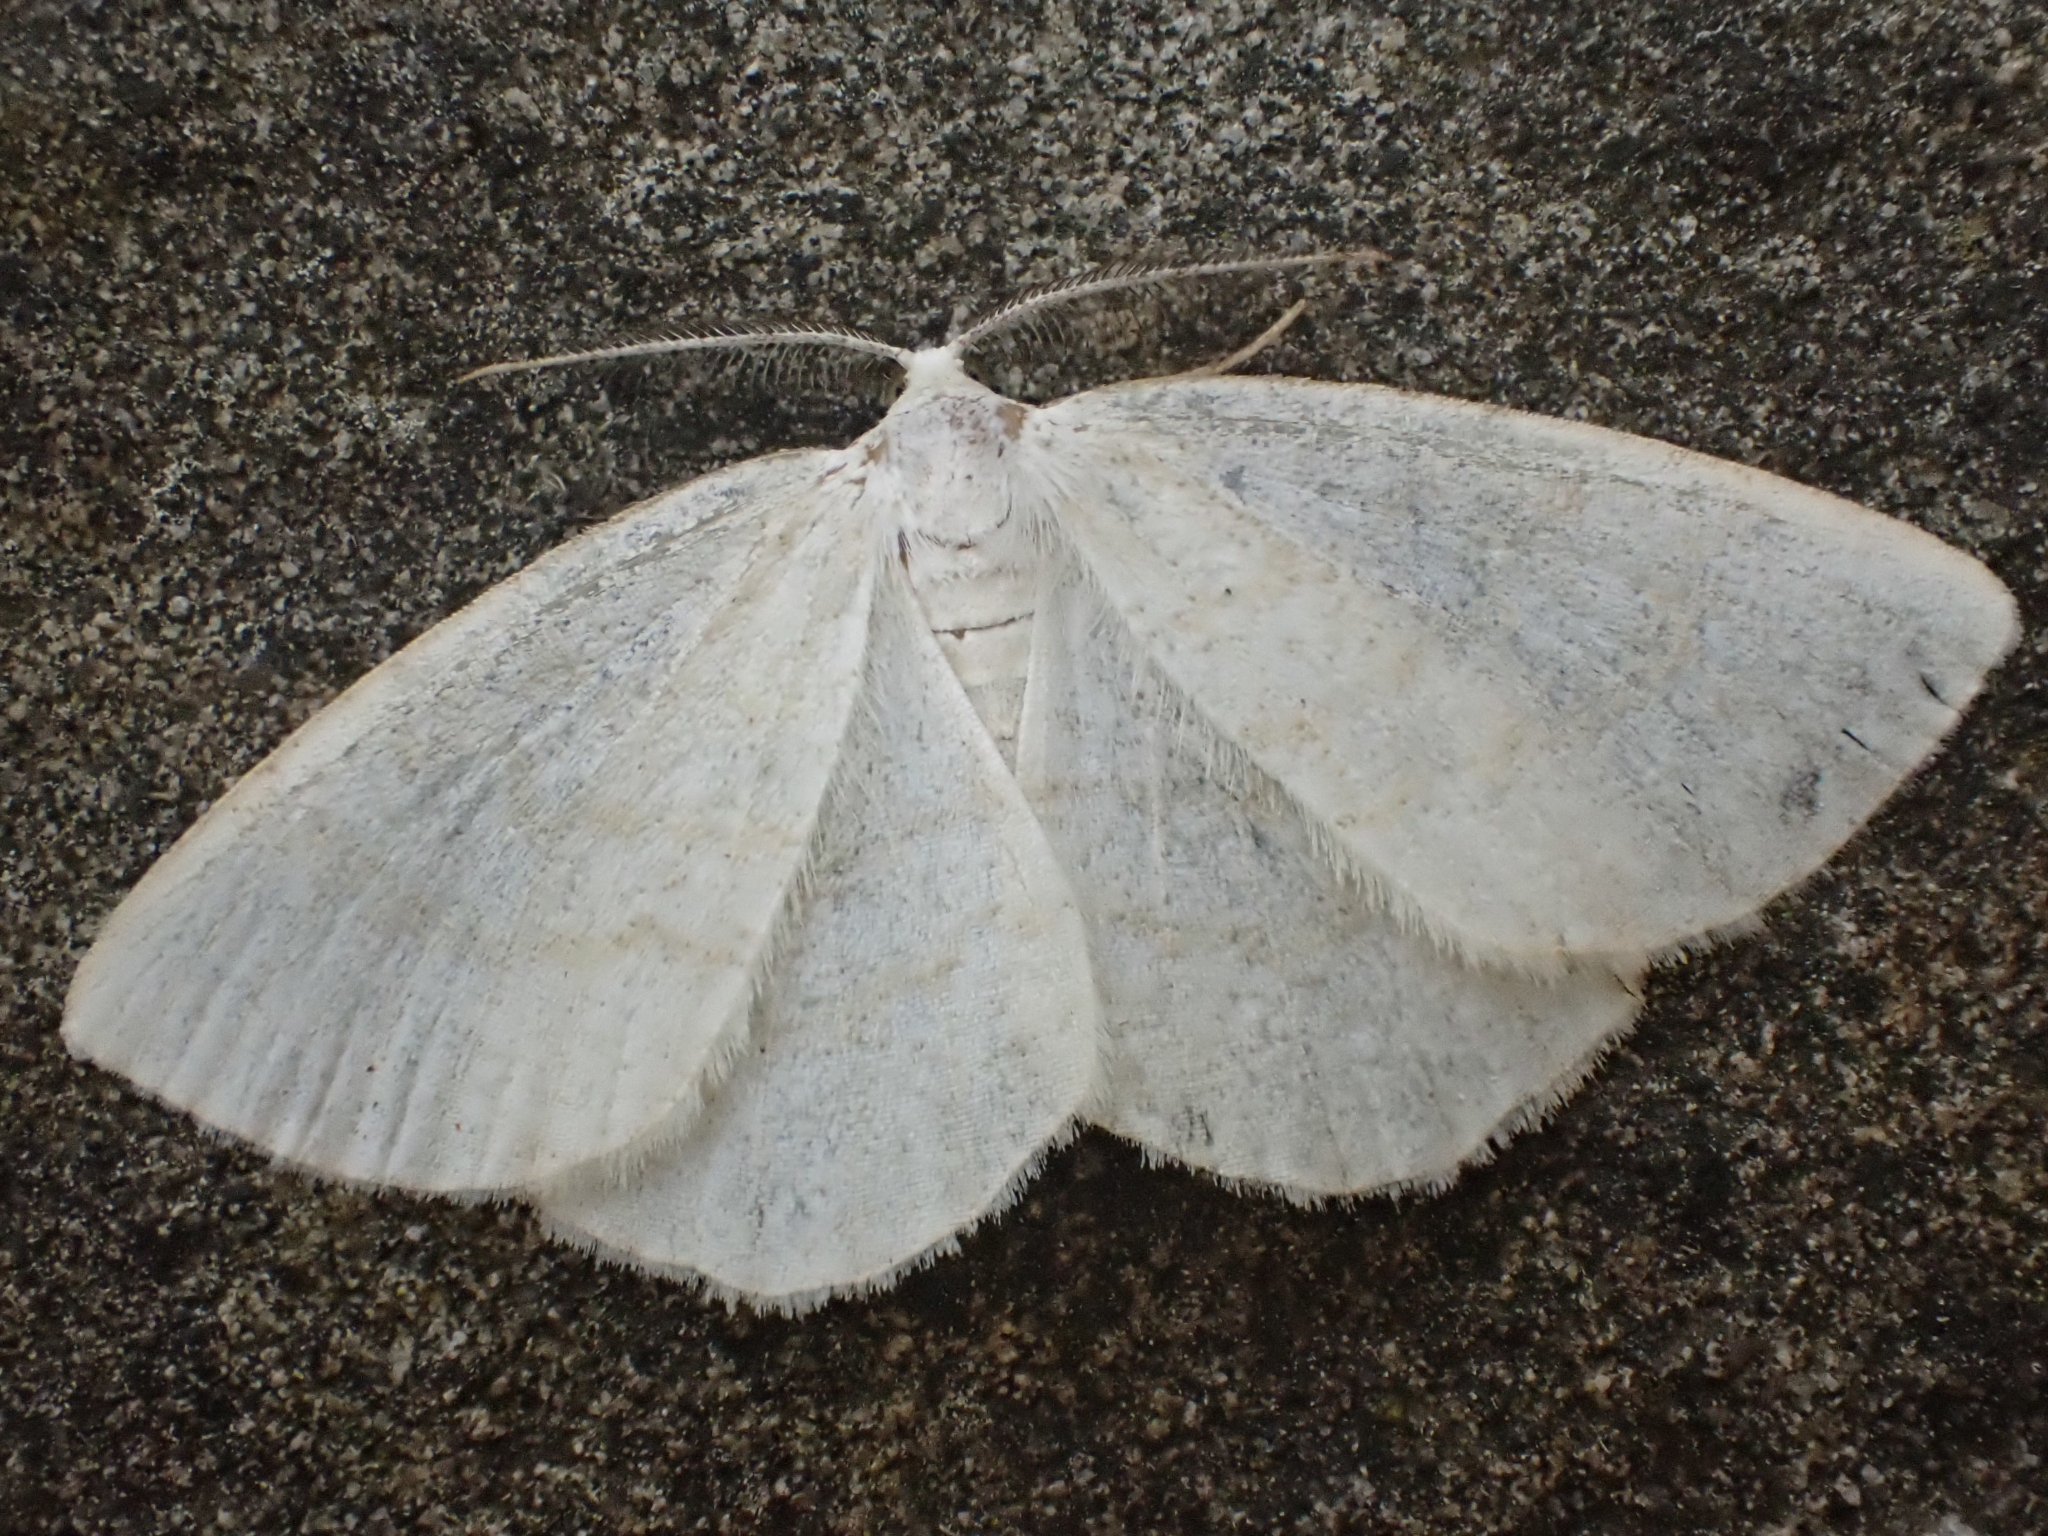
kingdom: Animalia
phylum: Arthropoda
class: Insecta
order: Lepidoptera
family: Geometridae
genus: Cabera
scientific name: Cabera exanthemata
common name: Common wave
